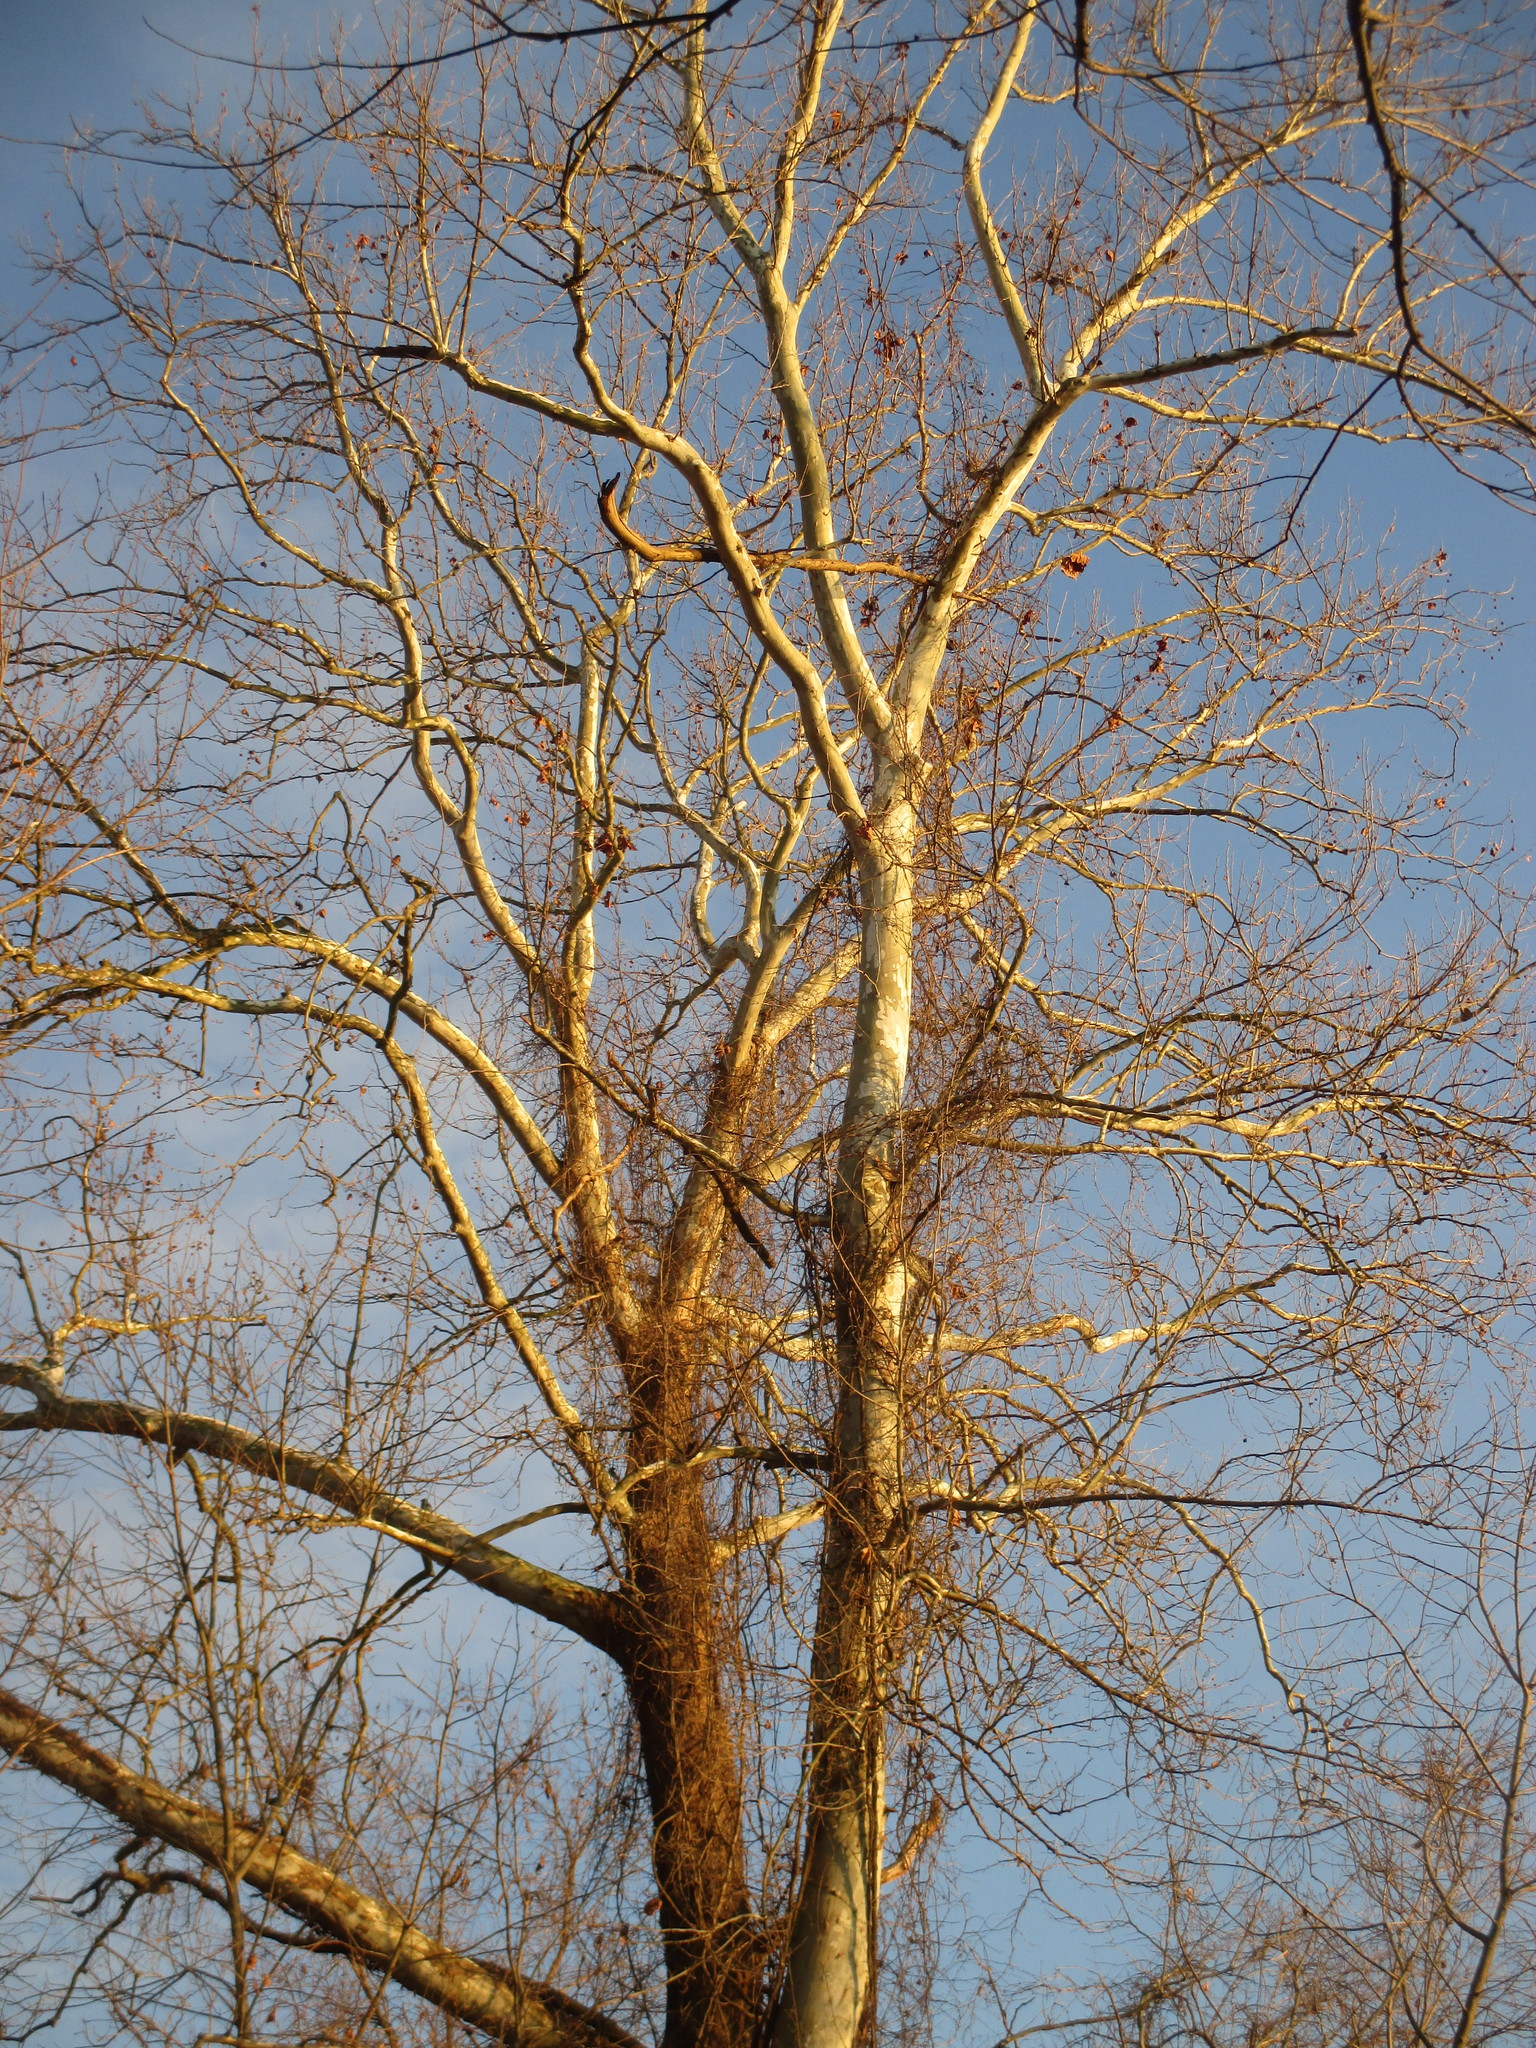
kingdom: Plantae
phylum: Tracheophyta
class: Magnoliopsida
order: Proteales
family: Platanaceae
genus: Platanus
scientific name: Platanus occidentalis
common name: American sycamore
